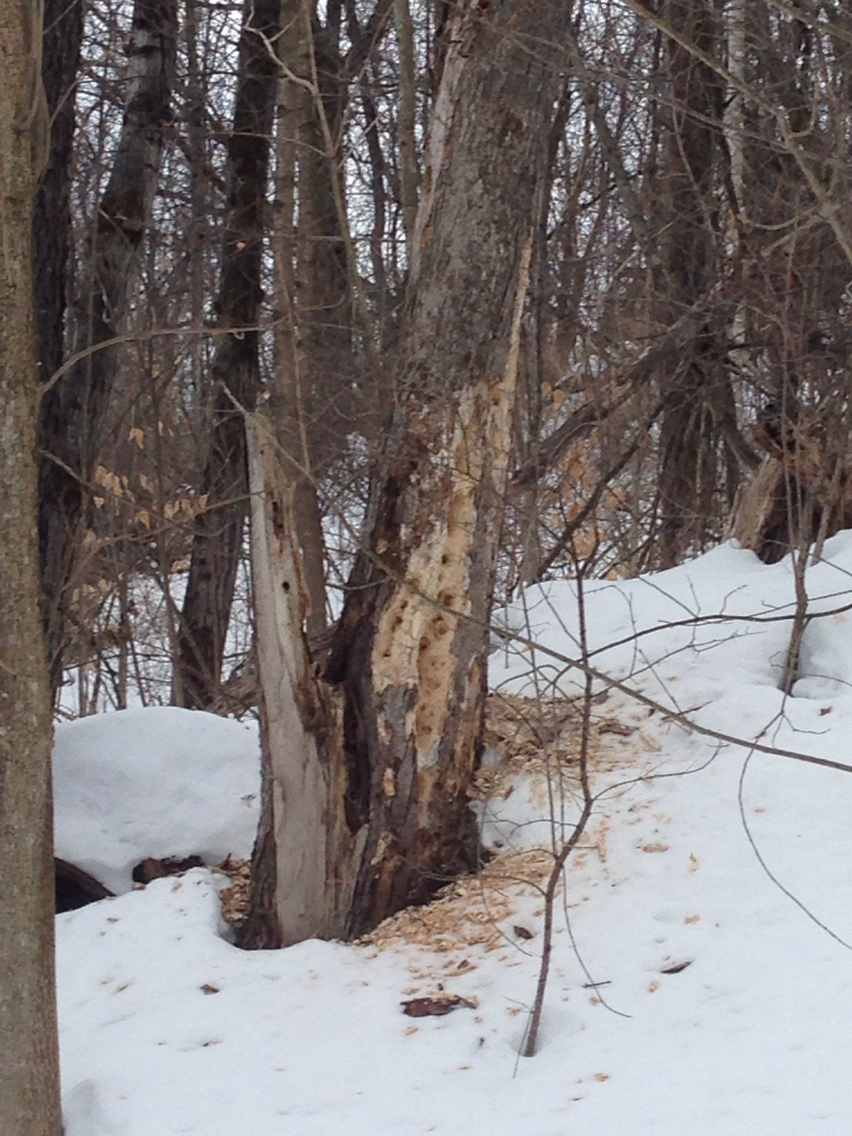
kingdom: Animalia
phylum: Chordata
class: Aves
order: Piciformes
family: Picidae
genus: Dryocopus
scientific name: Dryocopus pileatus
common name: Pileated woodpecker
